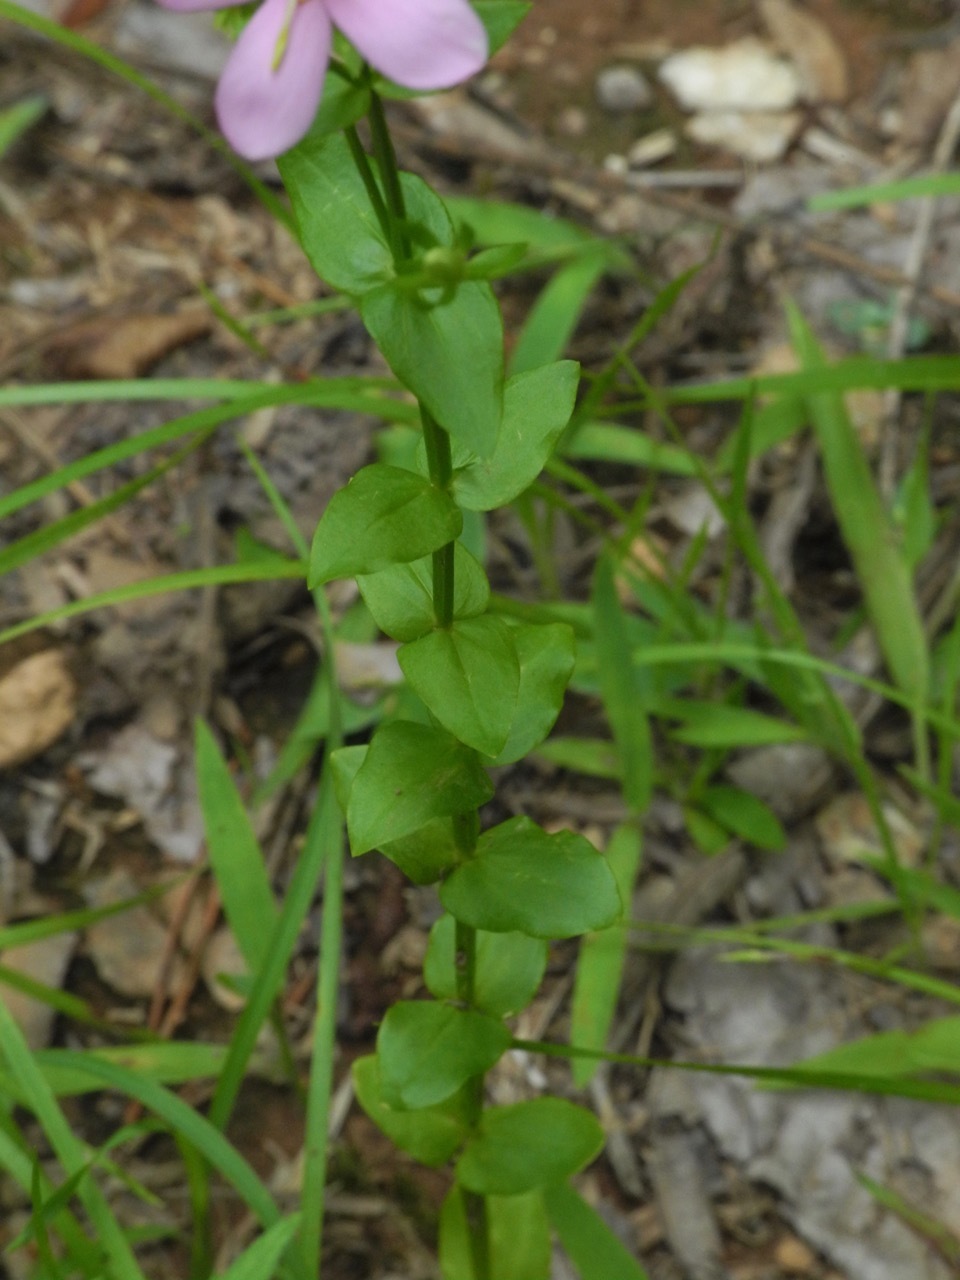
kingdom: Plantae
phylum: Tracheophyta
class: Magnoliopsida
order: Gentianales
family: Gentianaceae
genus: Sabatia
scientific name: Sabatia angularis
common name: Rose-pink
